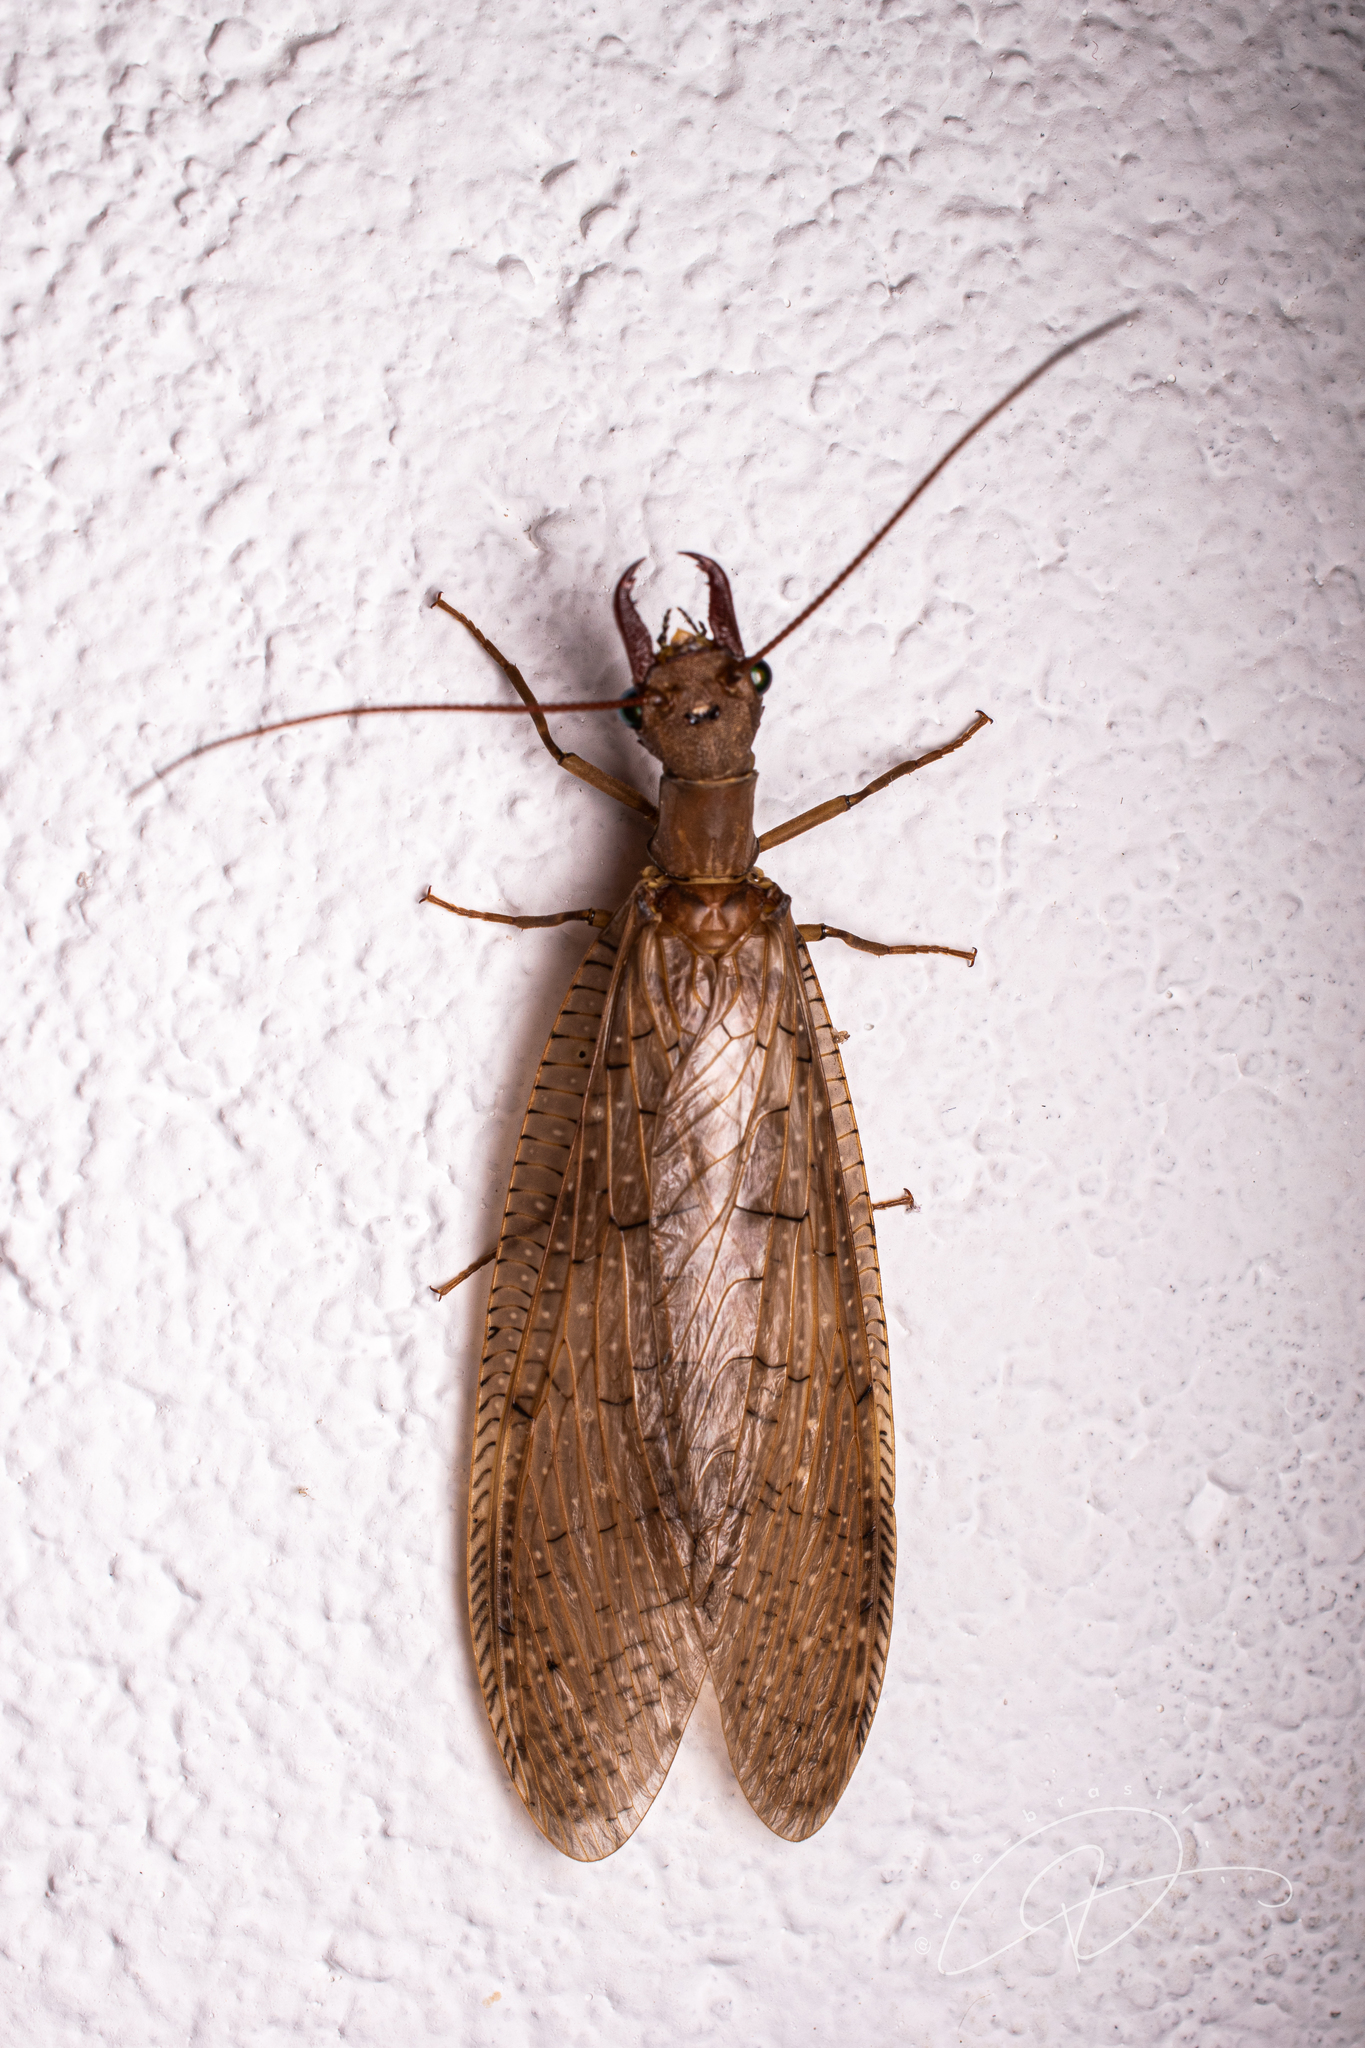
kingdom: Animalia
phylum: Arthropoda
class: Insecta
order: Megaloptera
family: Corydalidae
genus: Corydalus
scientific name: Corydalus australis
